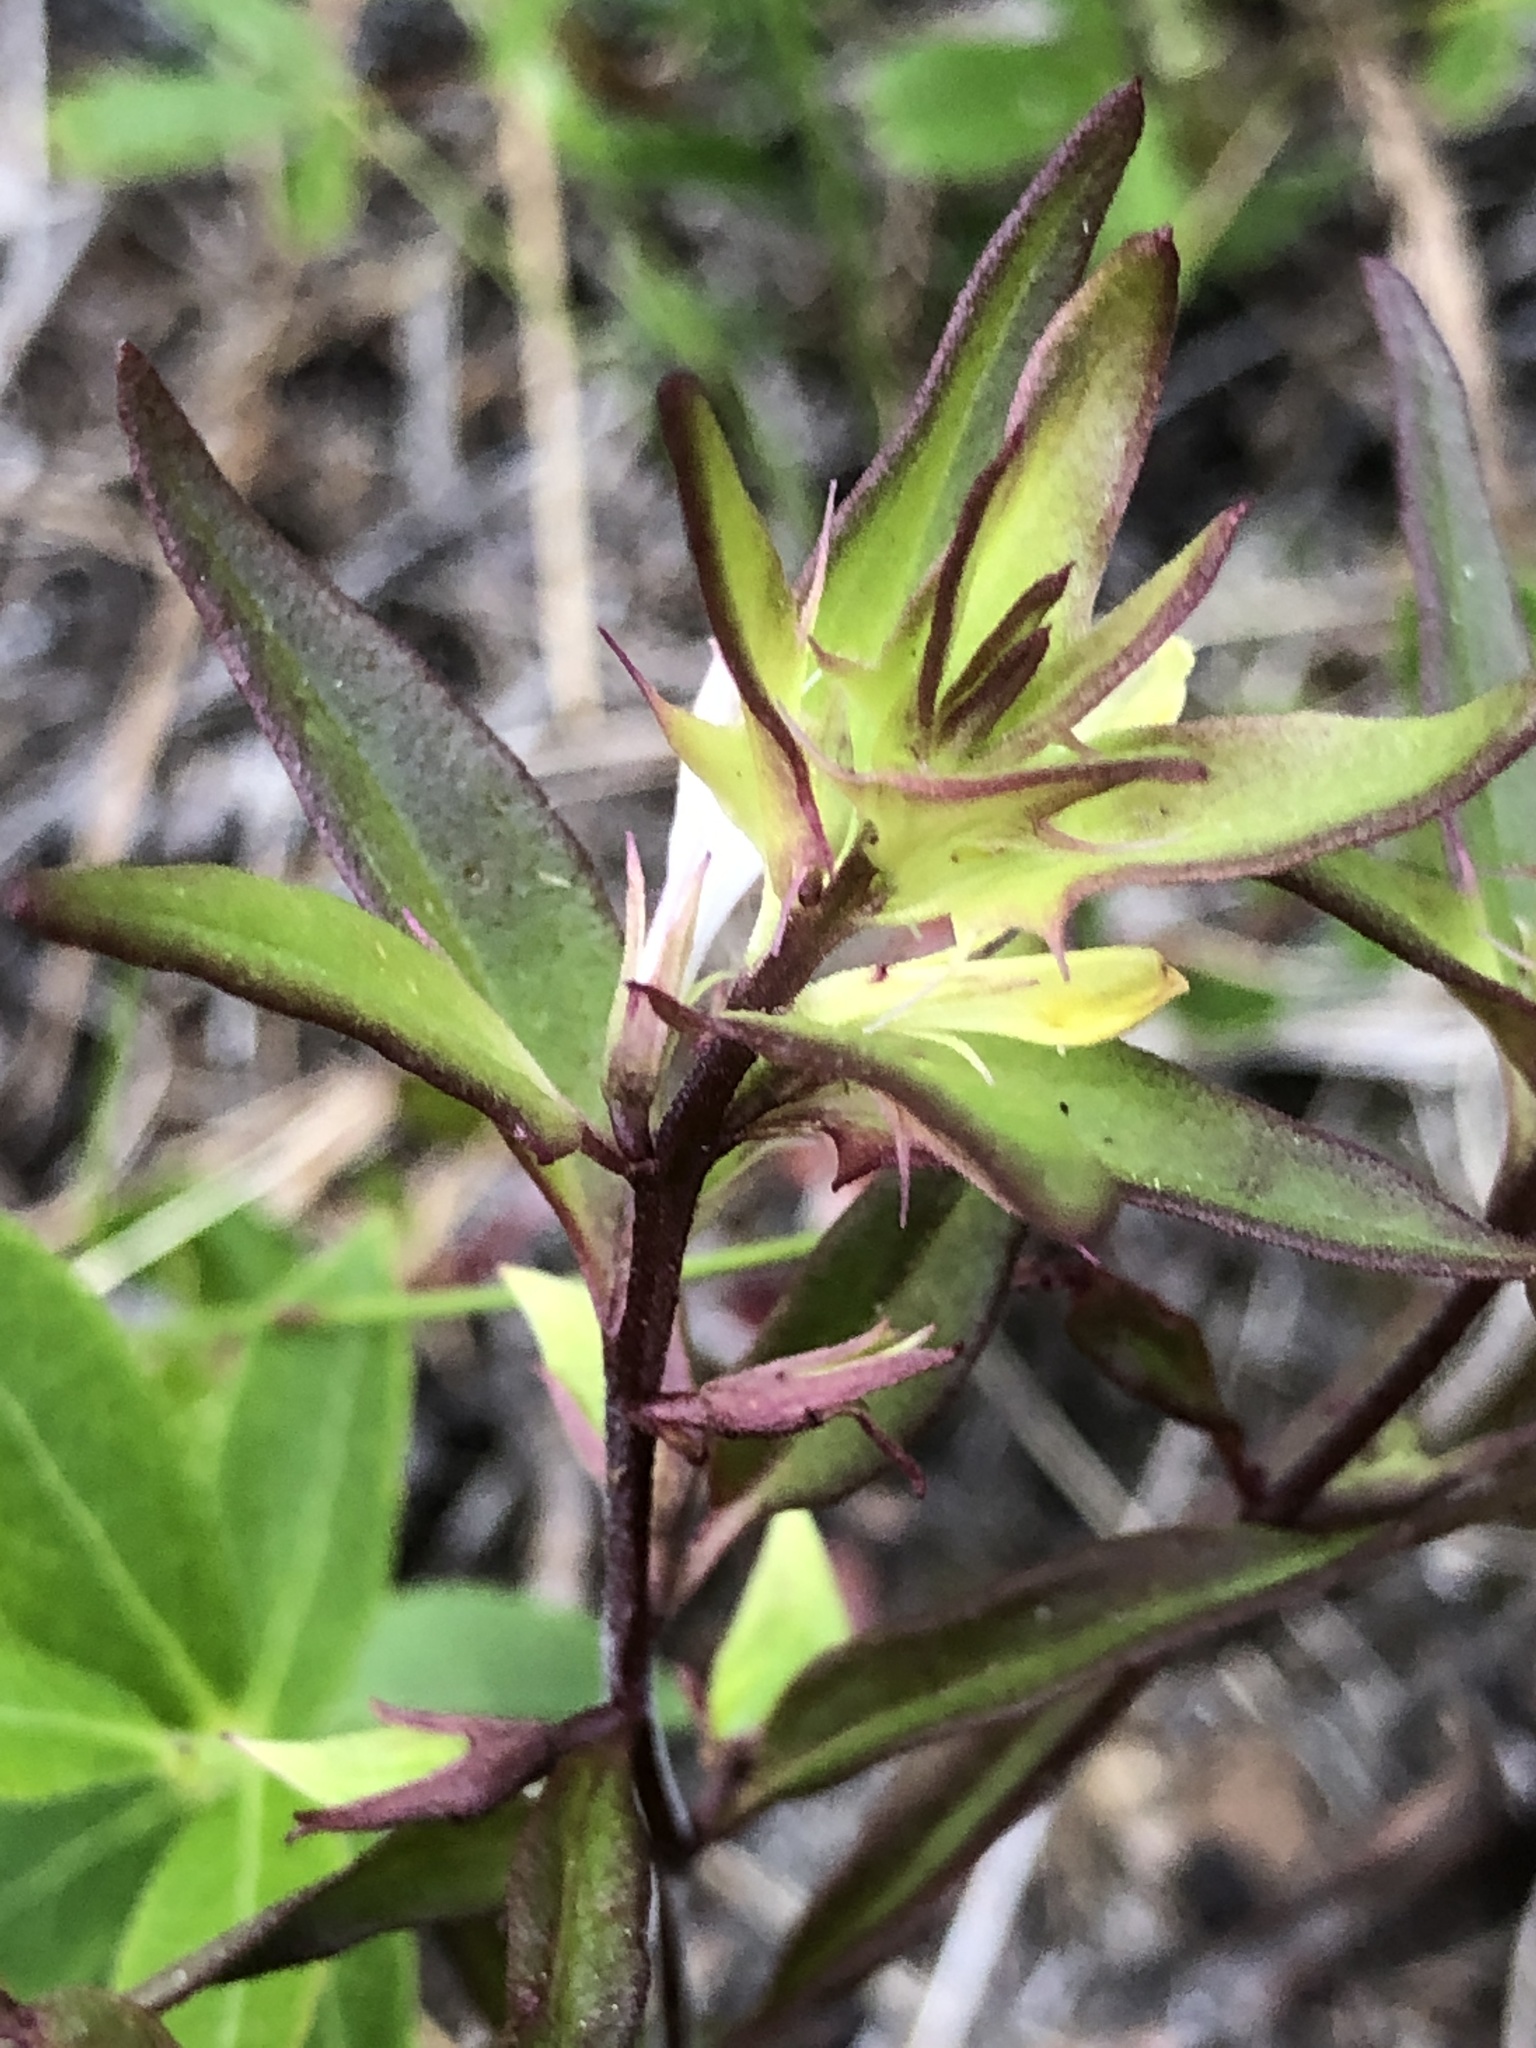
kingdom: Plantae
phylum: Tracheophyta
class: Magnoliopsida
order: Lamiales
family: Orobanchaceae
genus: Melampyrum
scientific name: Melampyrum lineare
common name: American cow-wheat
